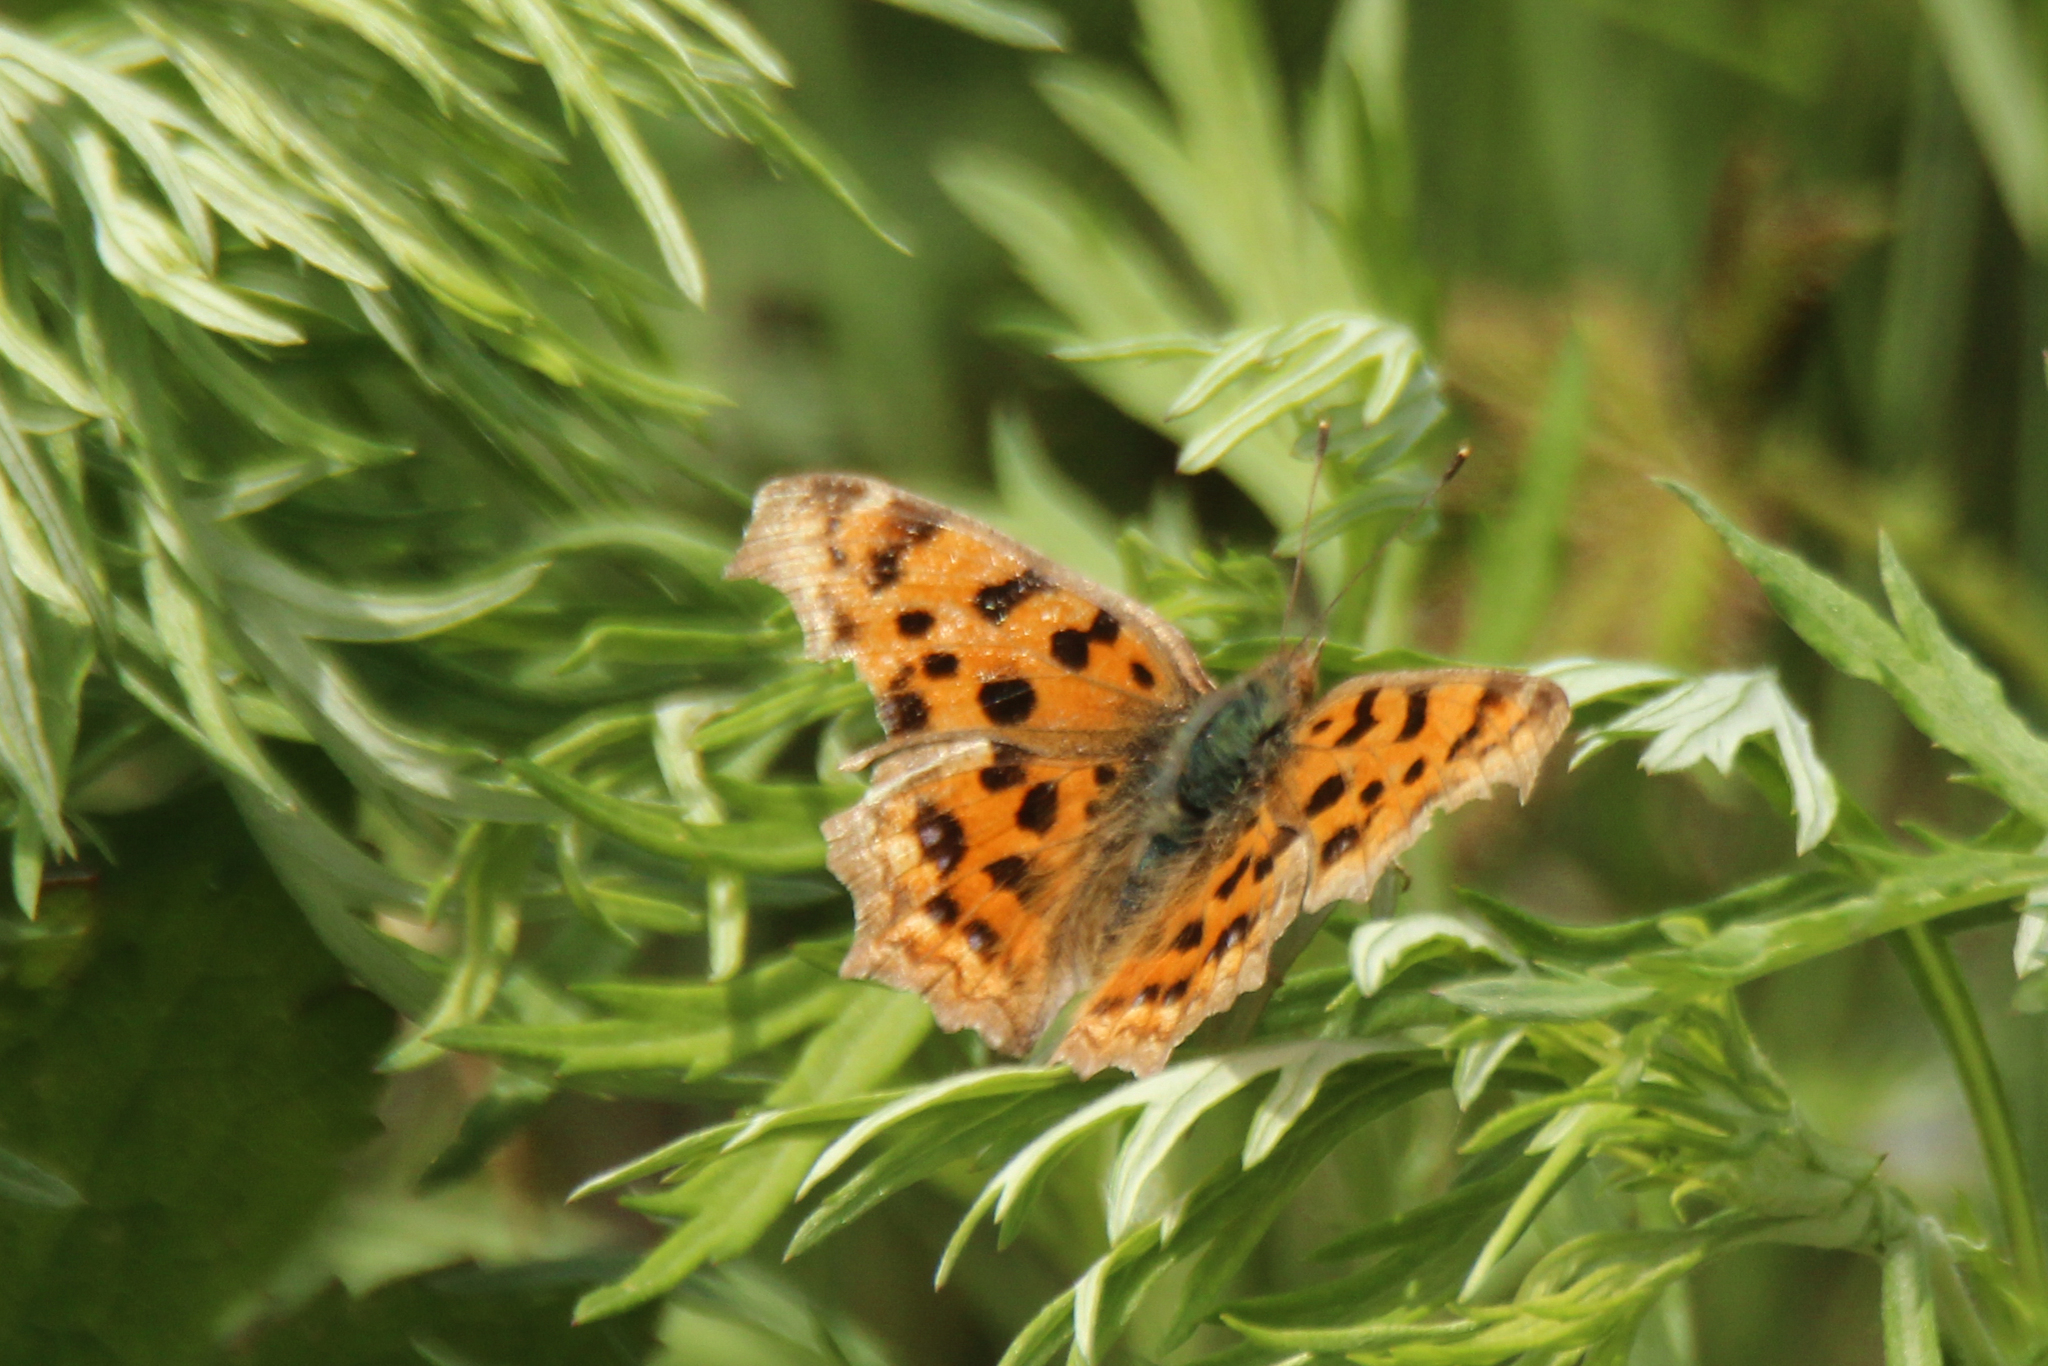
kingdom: Animalia
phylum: Arthropoda
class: Insecta
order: Lepidoptera
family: Nymphalidae
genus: Polygonia
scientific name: Polygonia c-aureum
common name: Asian comma
